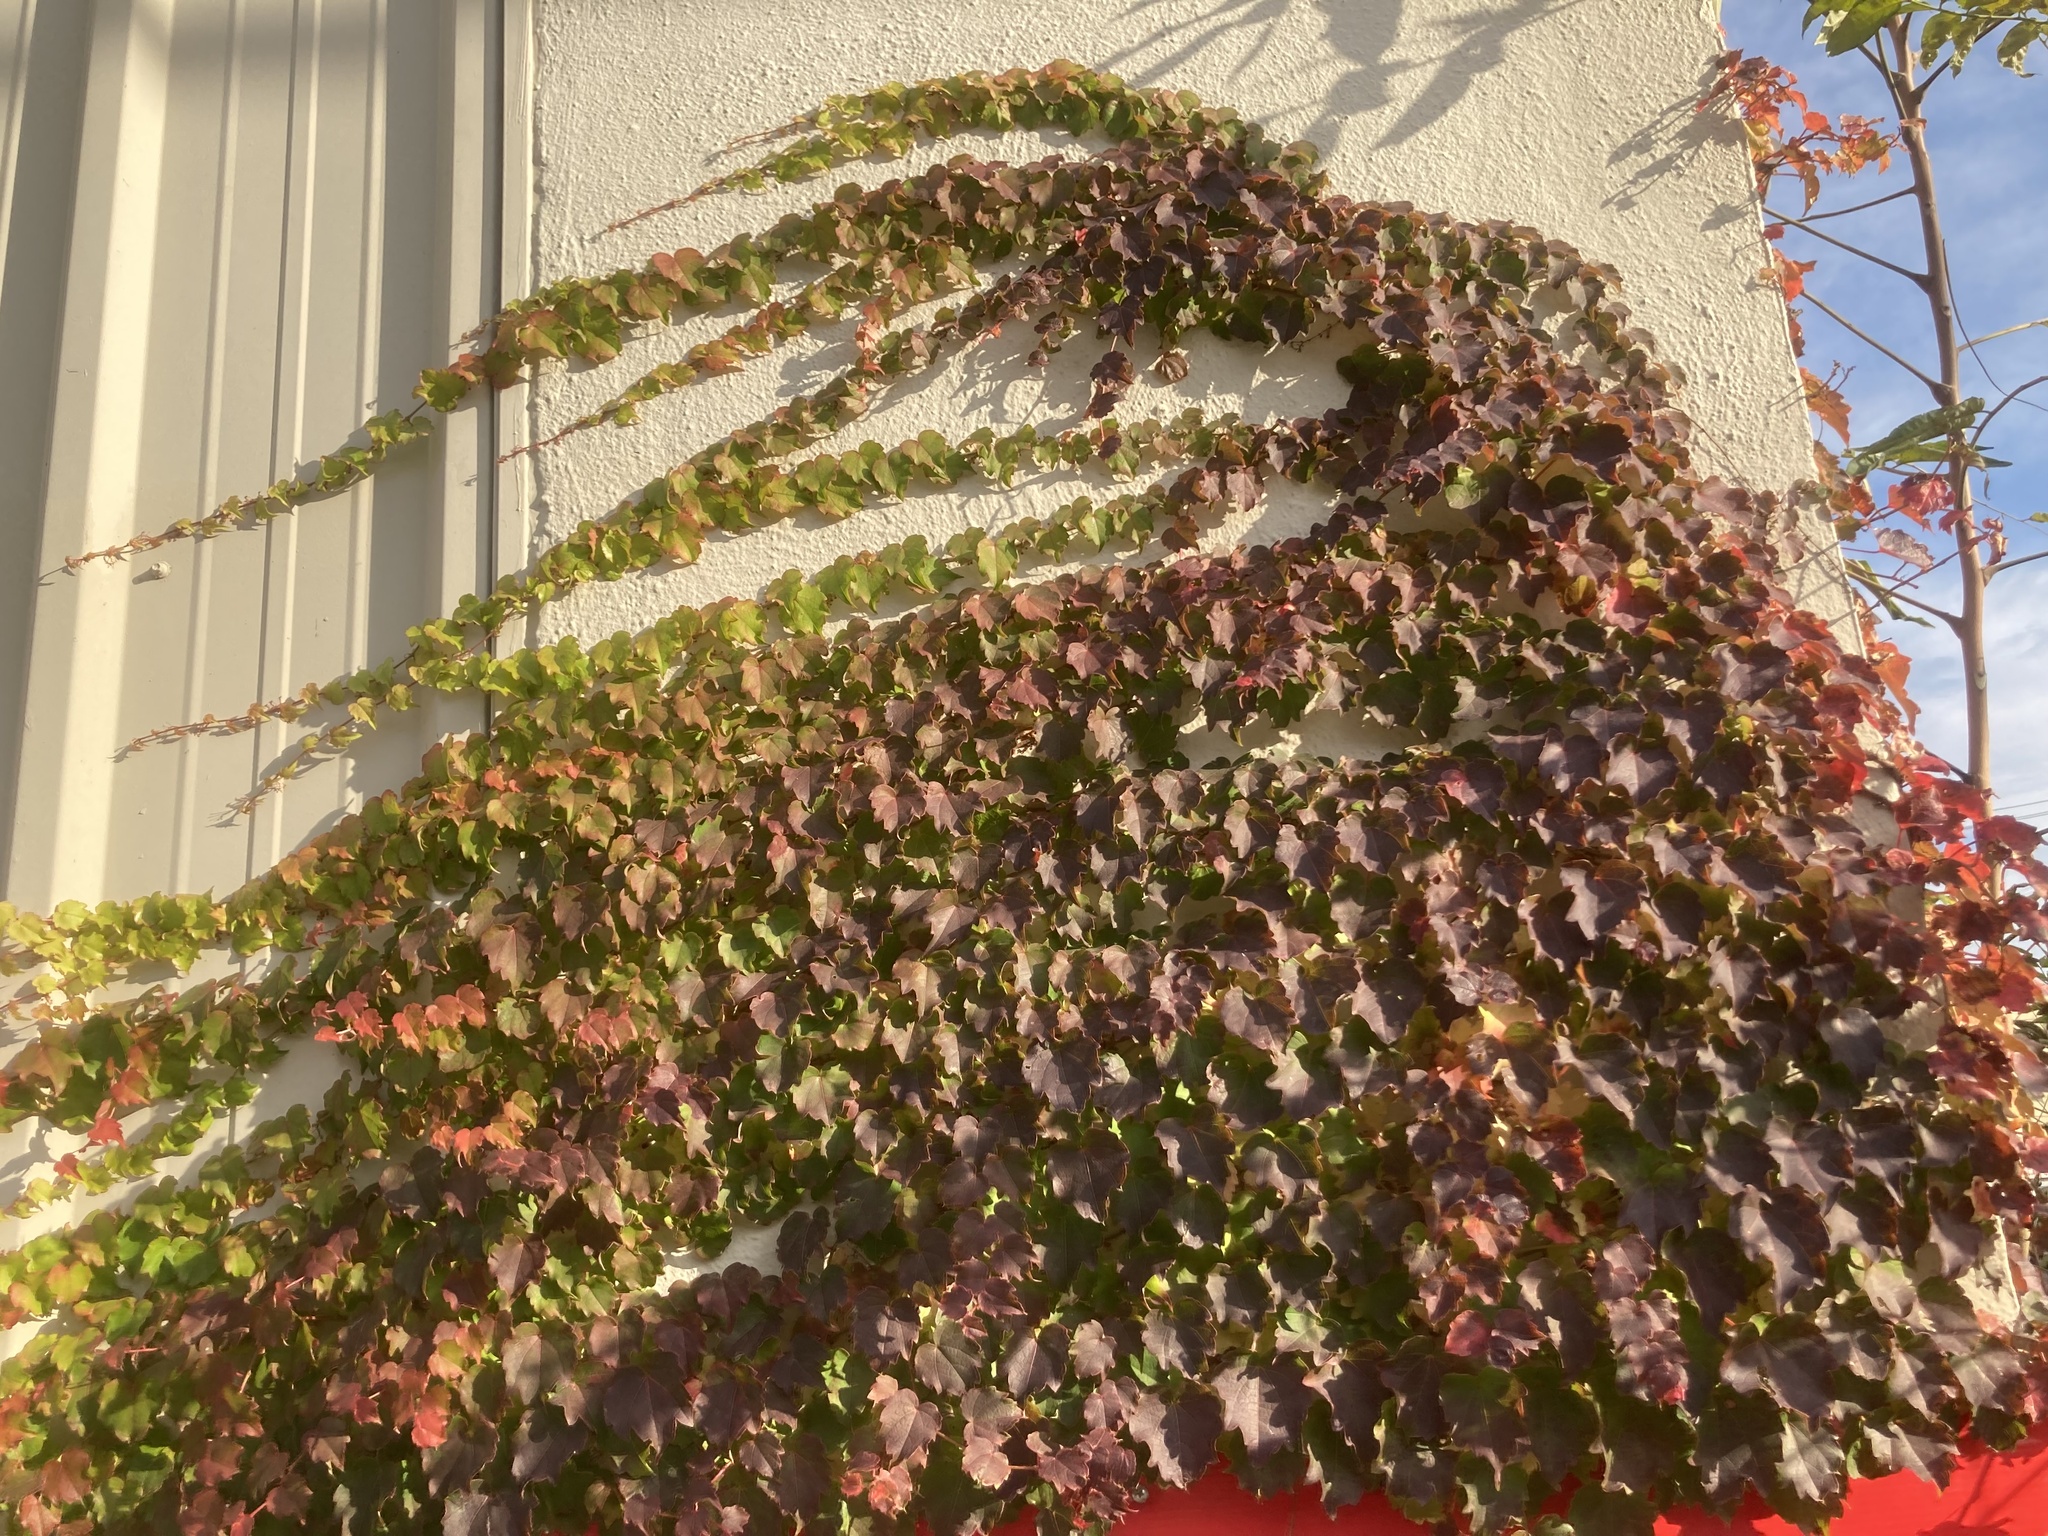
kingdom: Plantae
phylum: Tracheophyta
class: Magnoliopsida
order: Vitales
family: Vitaceae
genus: Parthenocissus
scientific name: Parthenocissus tricuspidata
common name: Boston ivy
